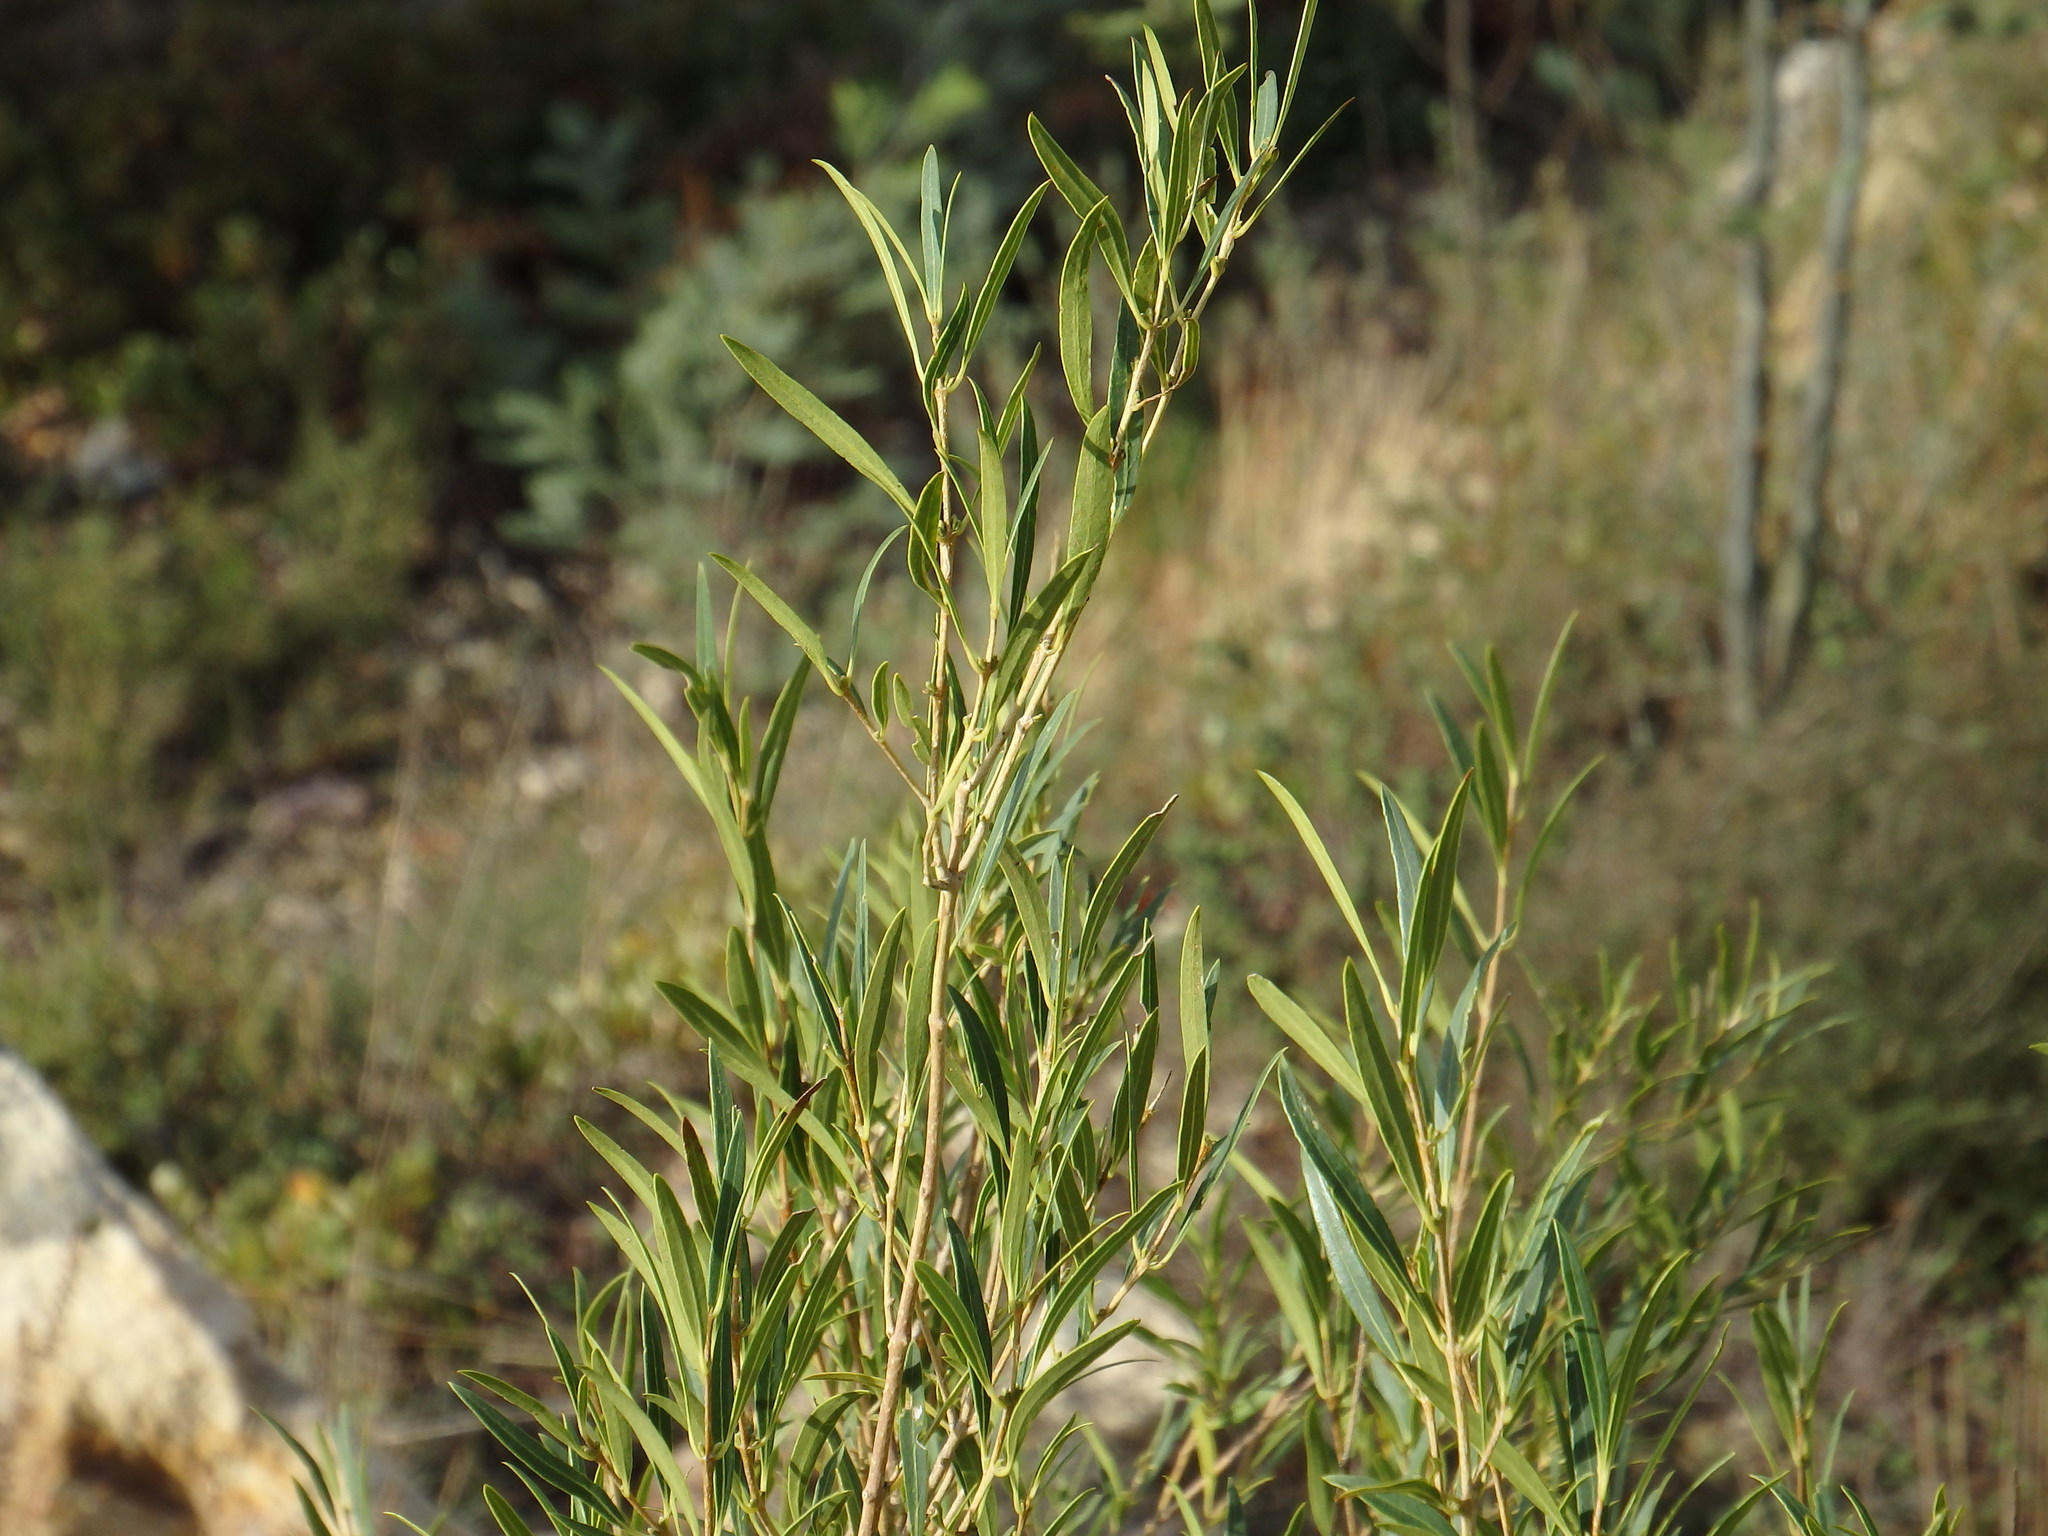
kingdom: Plantae
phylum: Tracheophyta
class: Magnoliopsida
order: Lamiales
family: Oleaceae
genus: Phillyrea
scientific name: Phillyrea angustifolia
